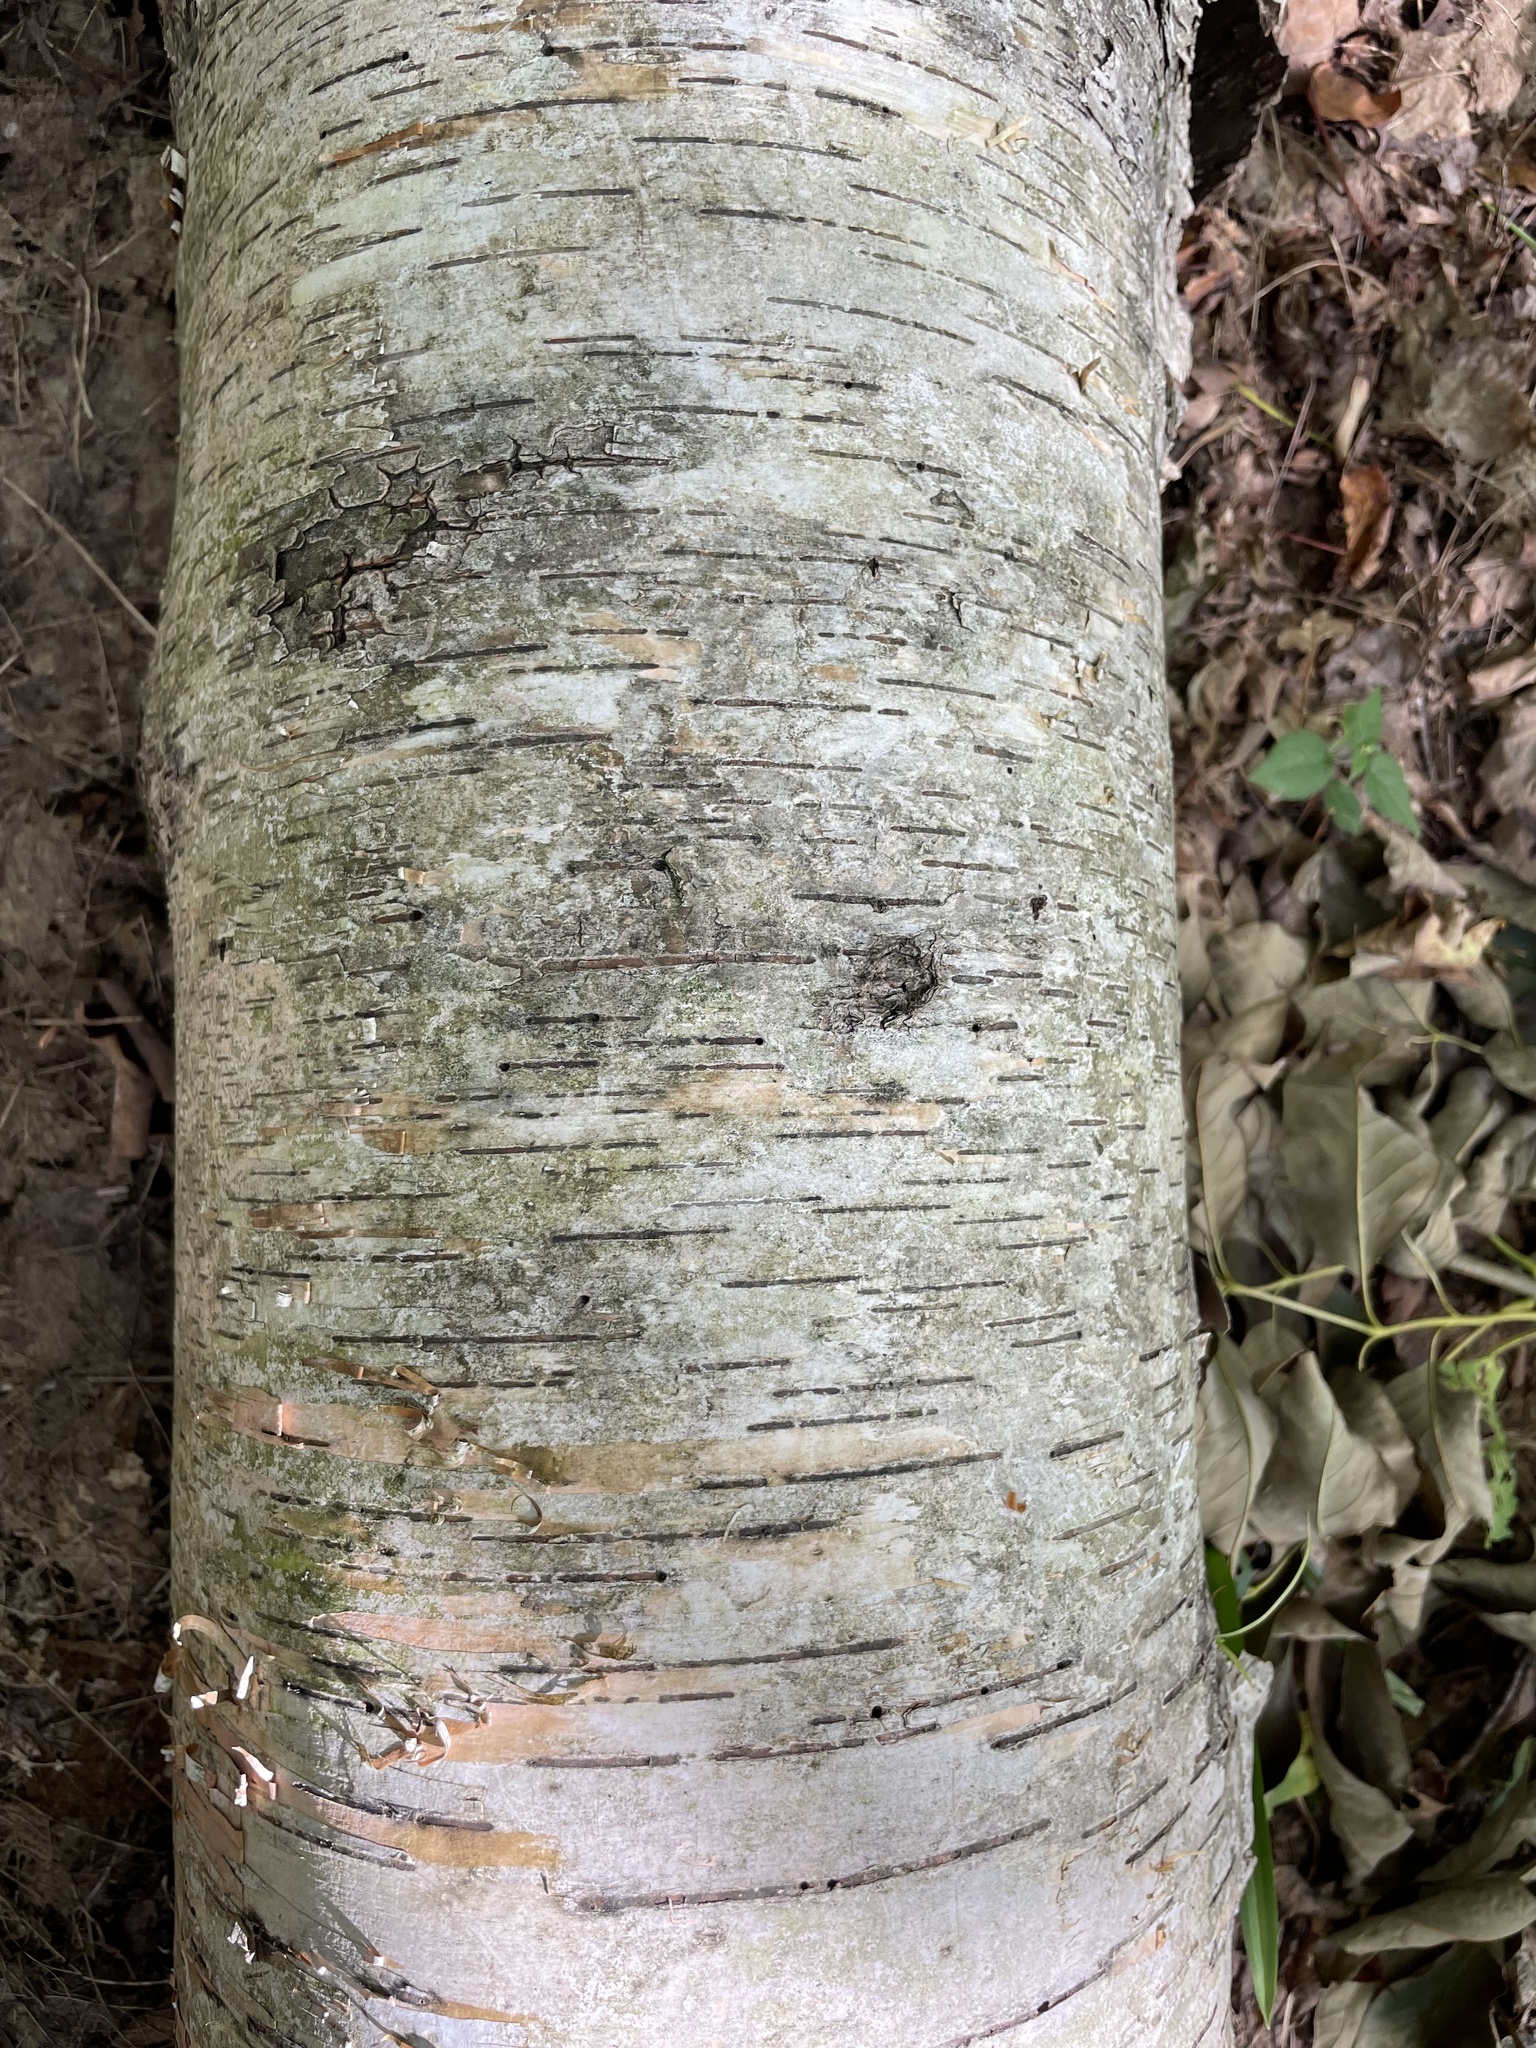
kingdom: Plantae
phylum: Tracheophyta
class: Magnoliopsida
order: Fagales
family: Betulaceae
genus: Betula
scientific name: Betula papyrifera
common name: Paper birch
